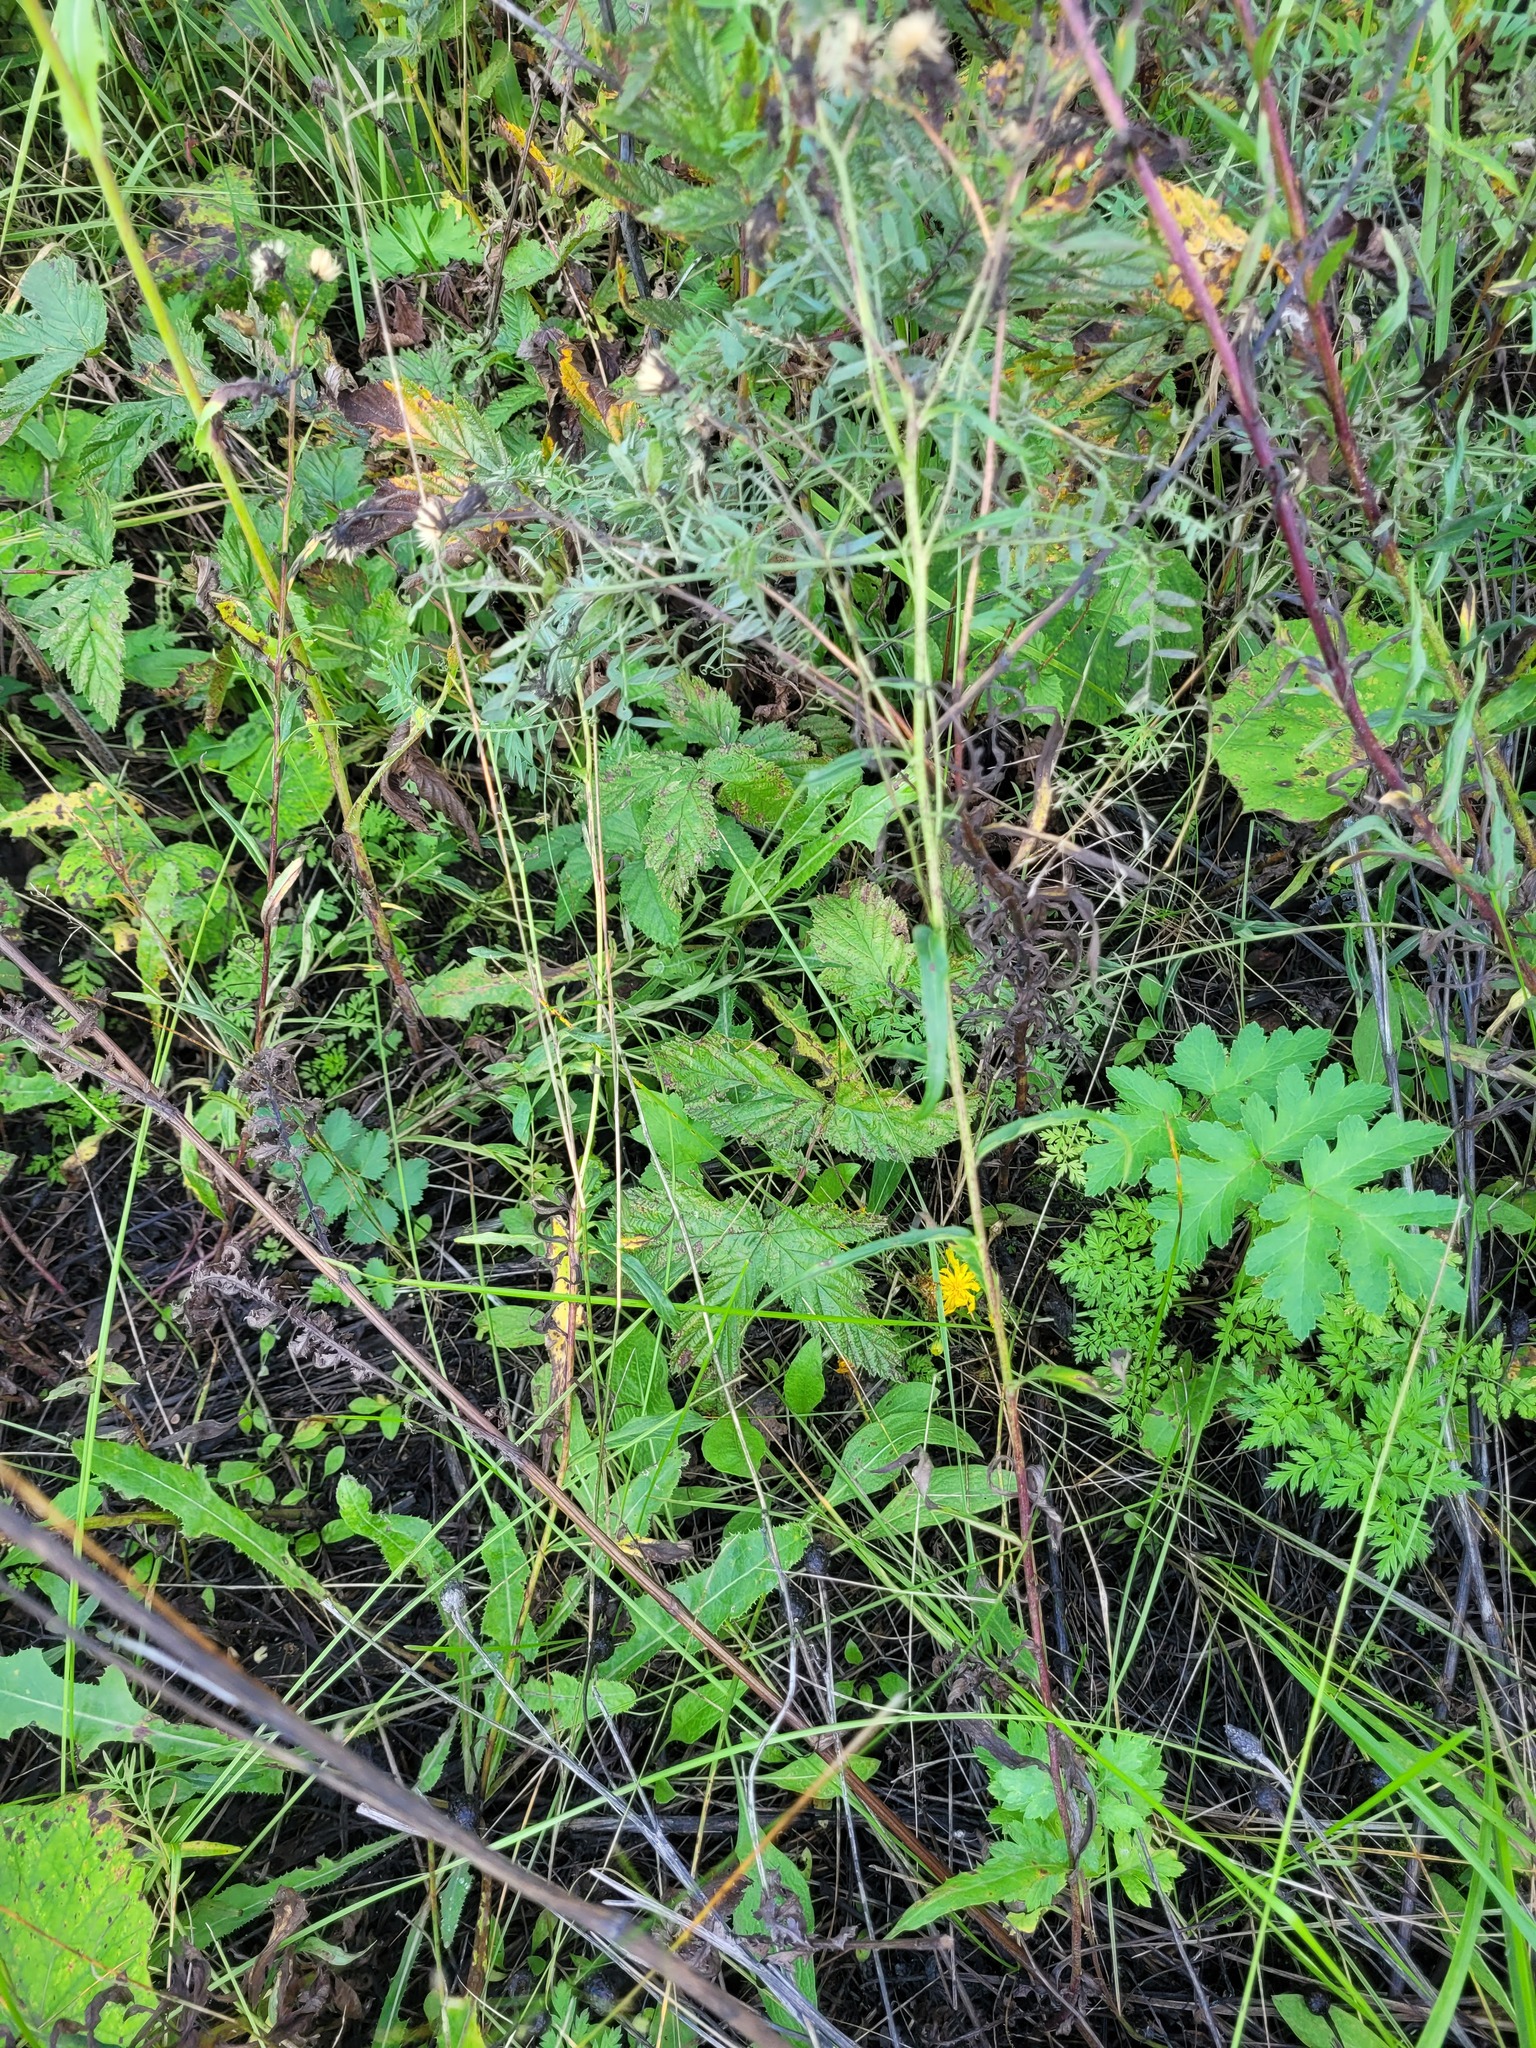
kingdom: Plantae
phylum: Tracheophyta
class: Magnoliopsida
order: Rosales
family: Rosaceae
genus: Filipendula
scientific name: Filipendula ulmaria
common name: Meadowsweet
